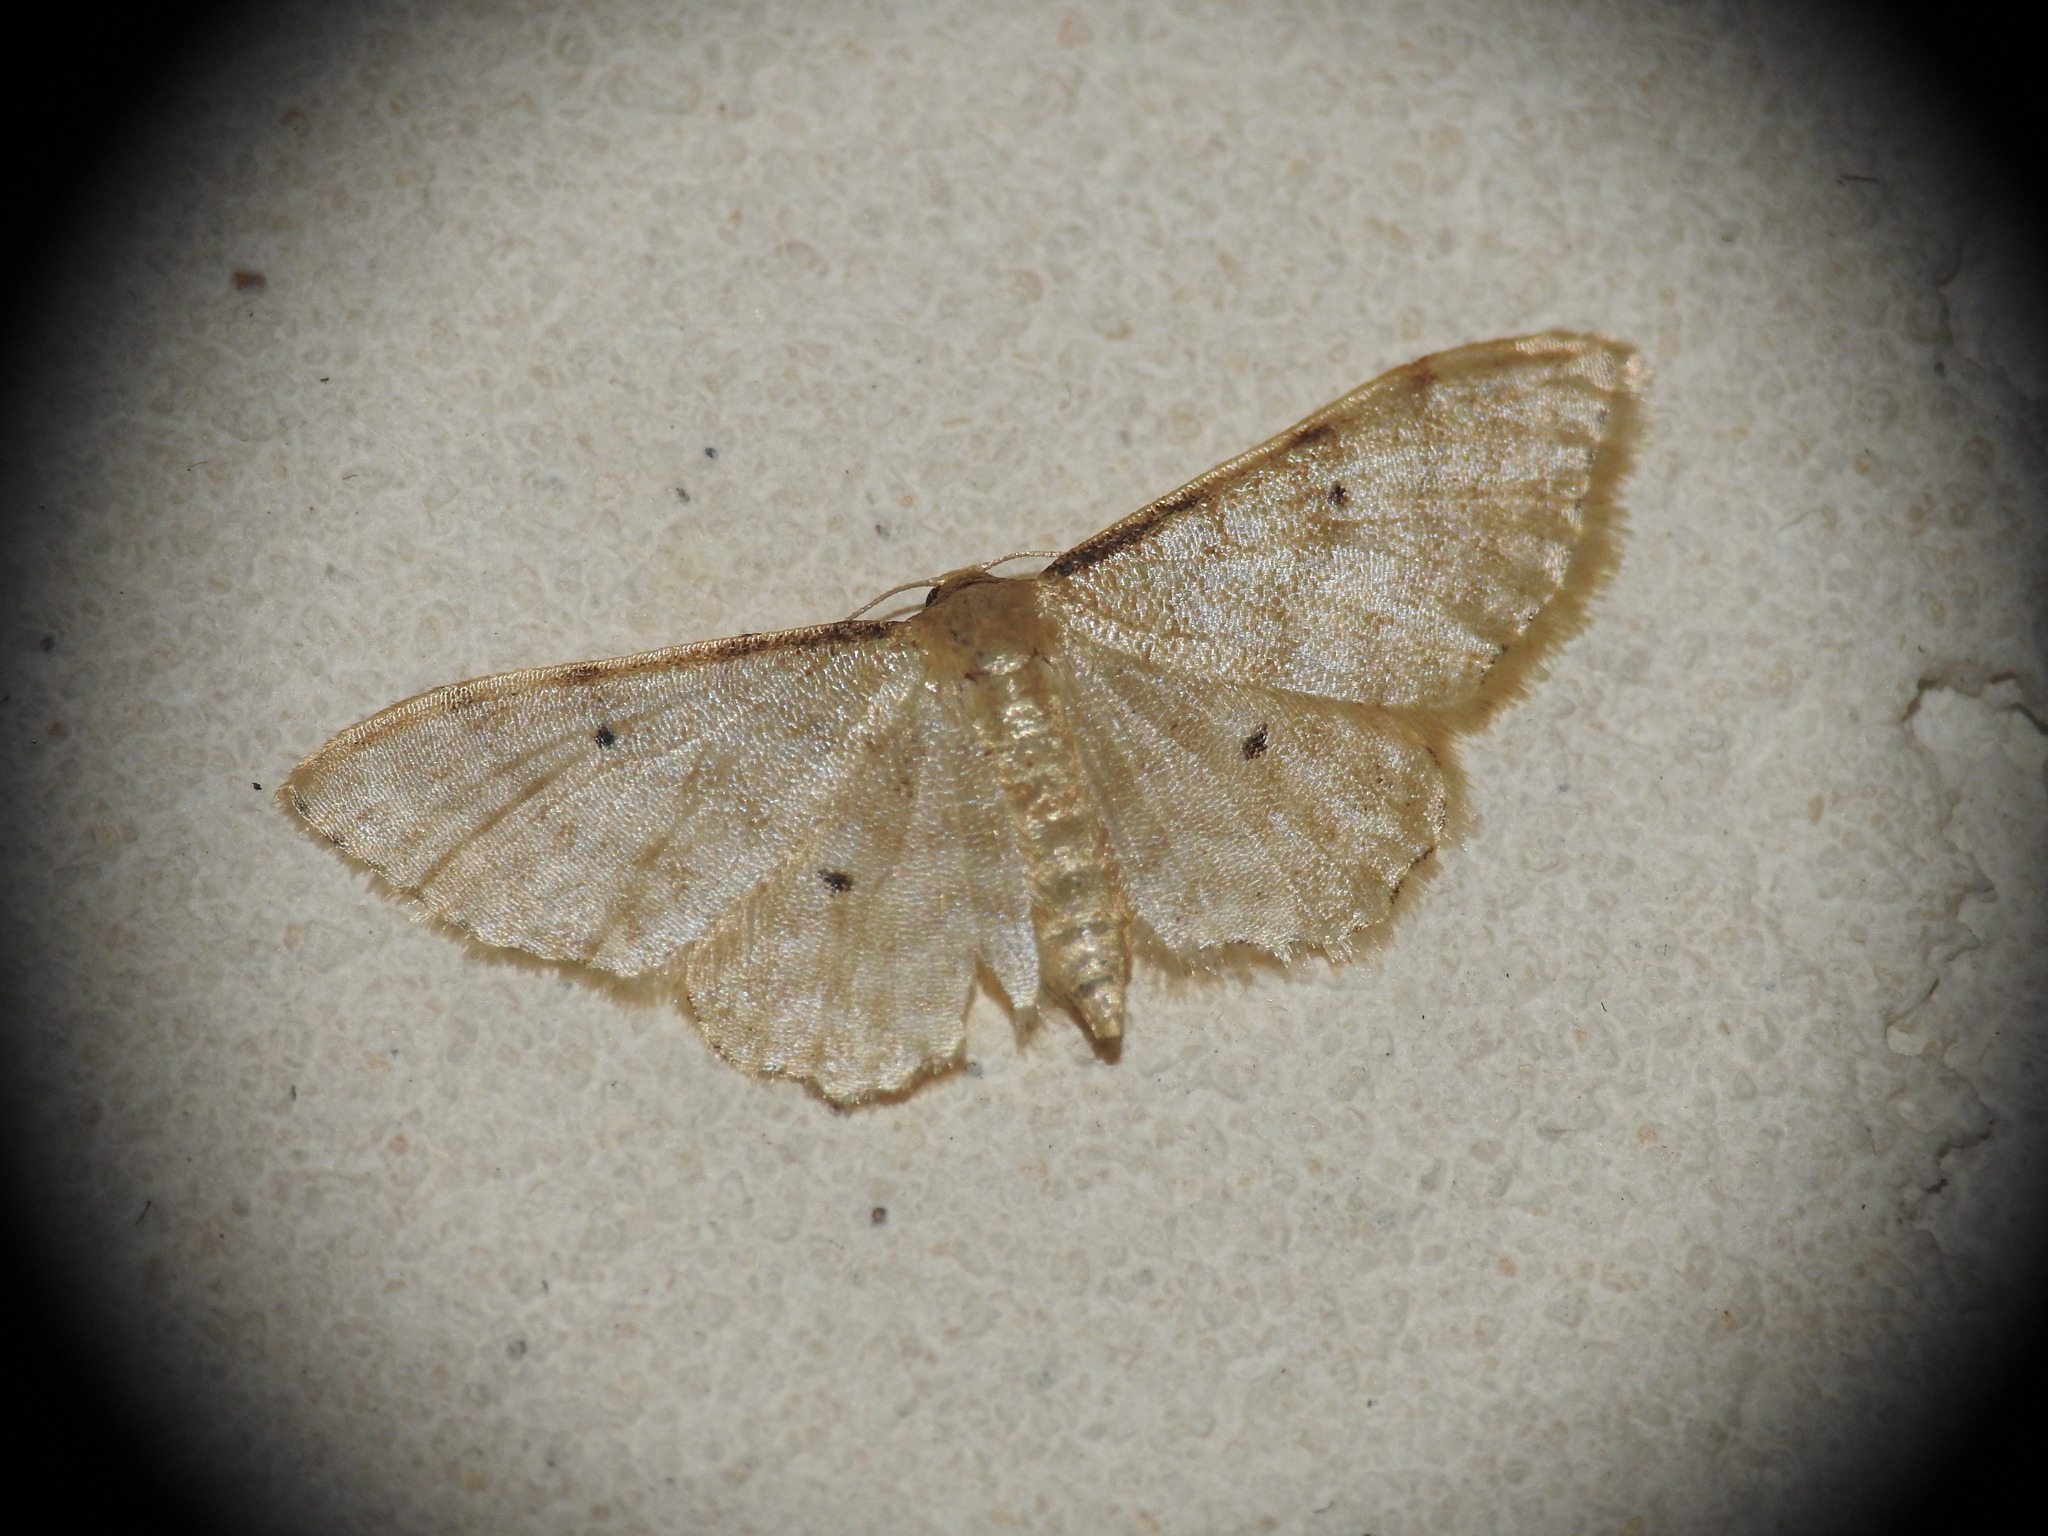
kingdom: Animalia
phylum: Arthropoda
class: Insecta
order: Lepidoptera
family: Geometridae
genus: Idaea
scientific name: Idaea fuscovenosa
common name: Dwarf cream wave
